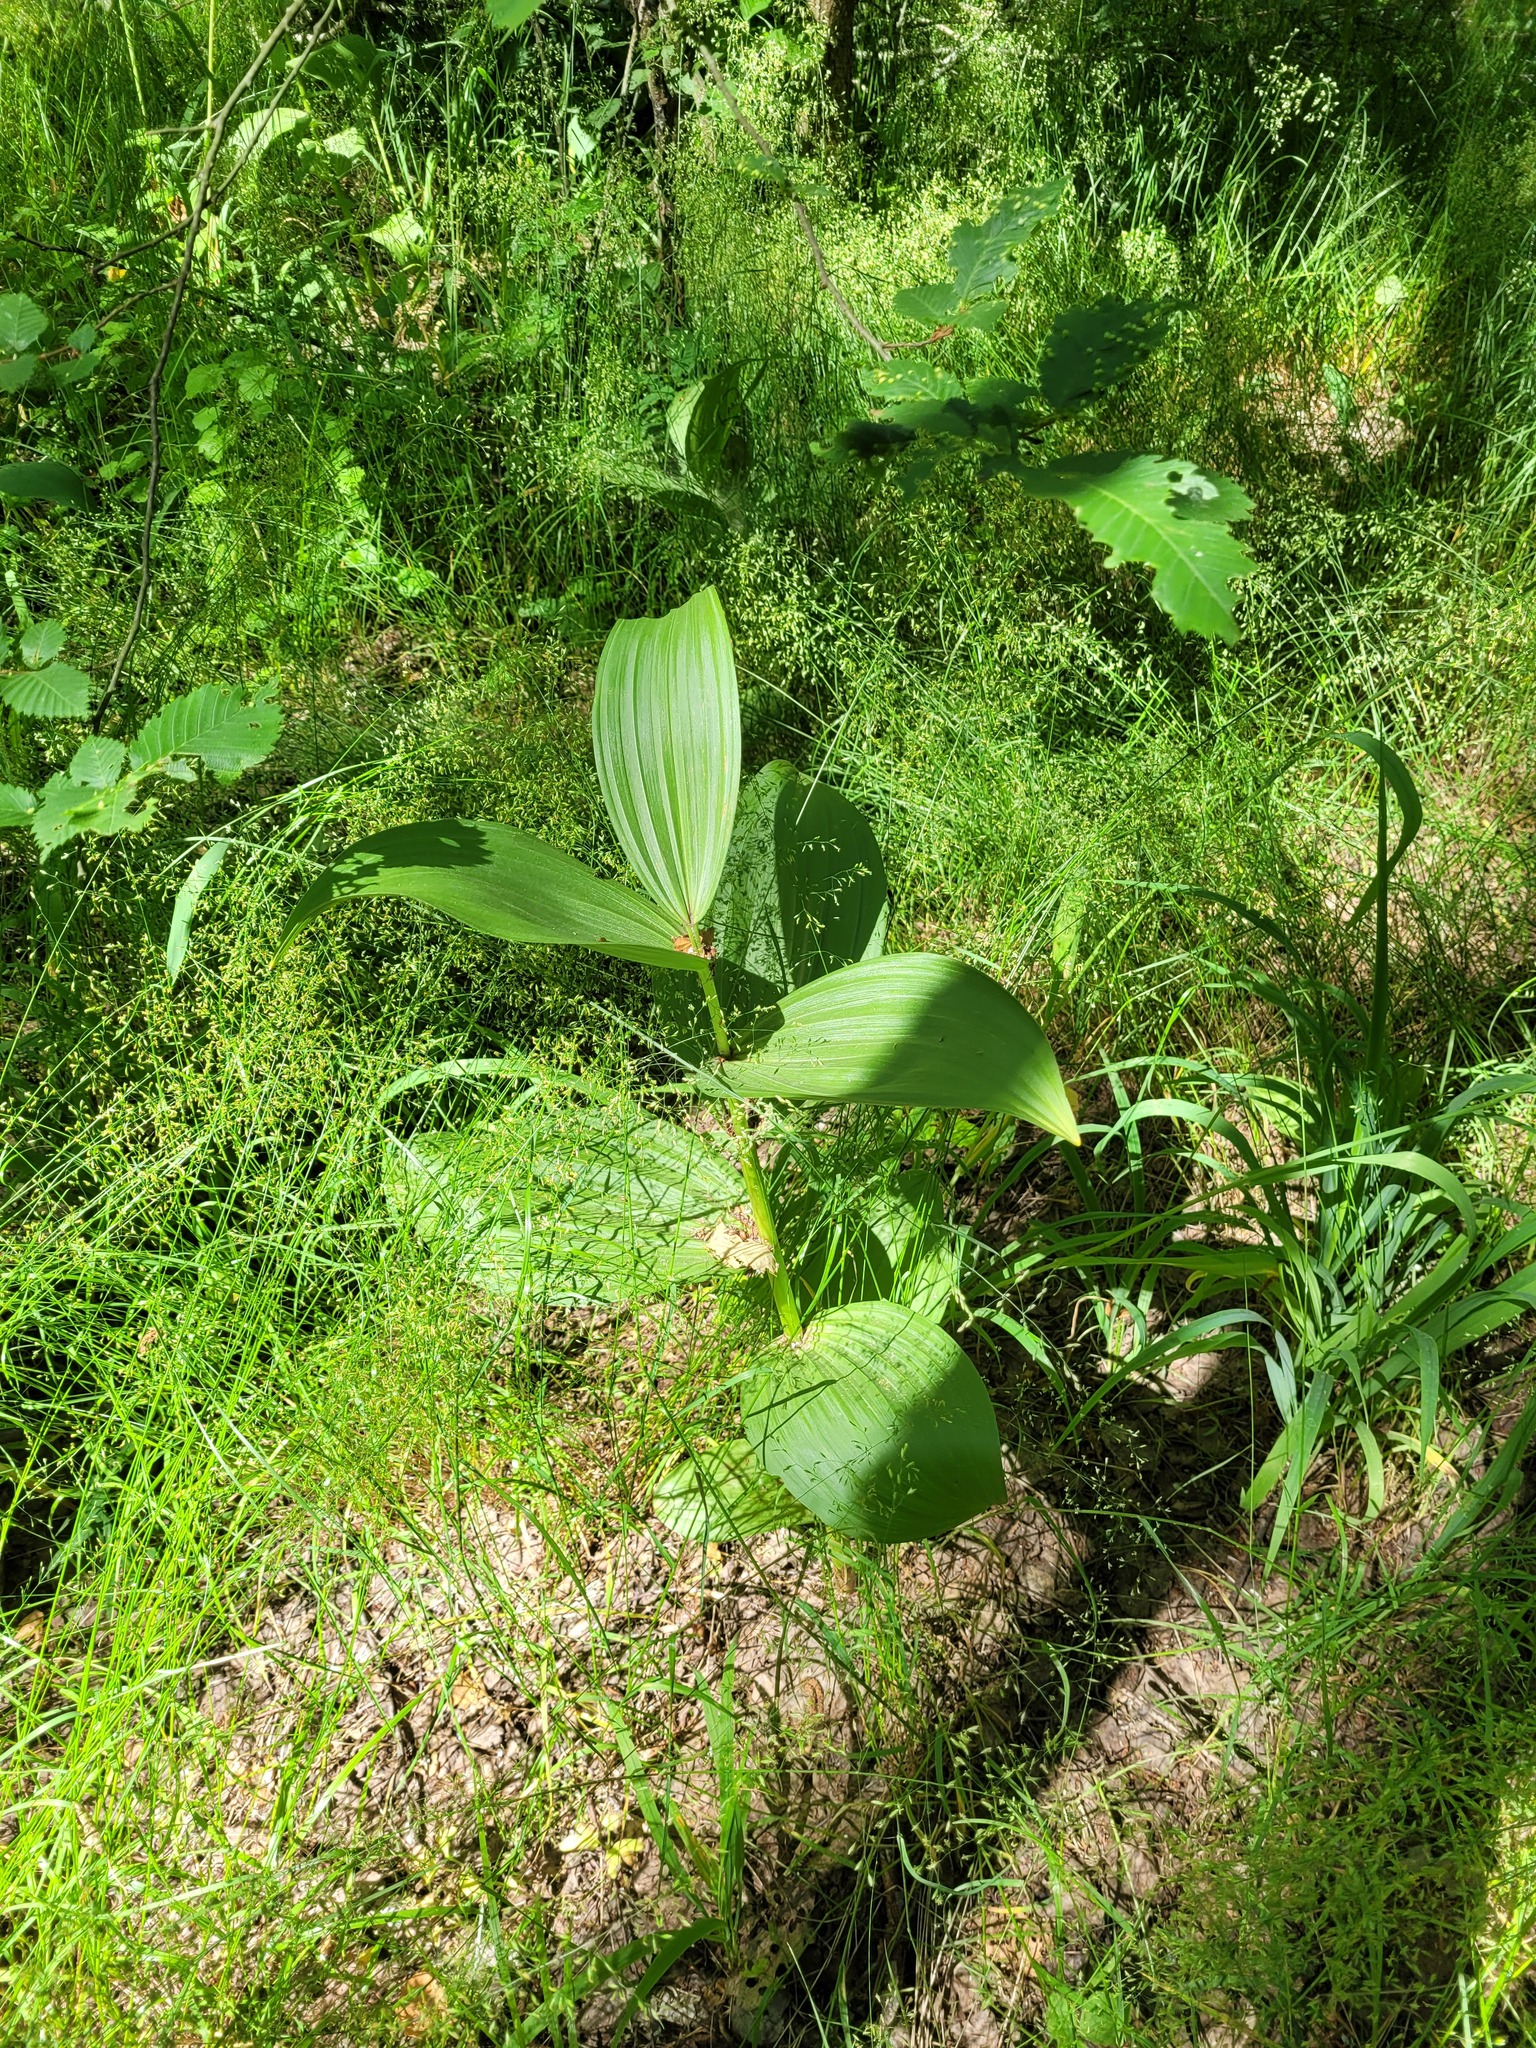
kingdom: Plantae
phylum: Tracheophyta
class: Liliopsida
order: Liliales
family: Melanthiaceae
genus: Veratrum
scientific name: Veratrum lobelianum
